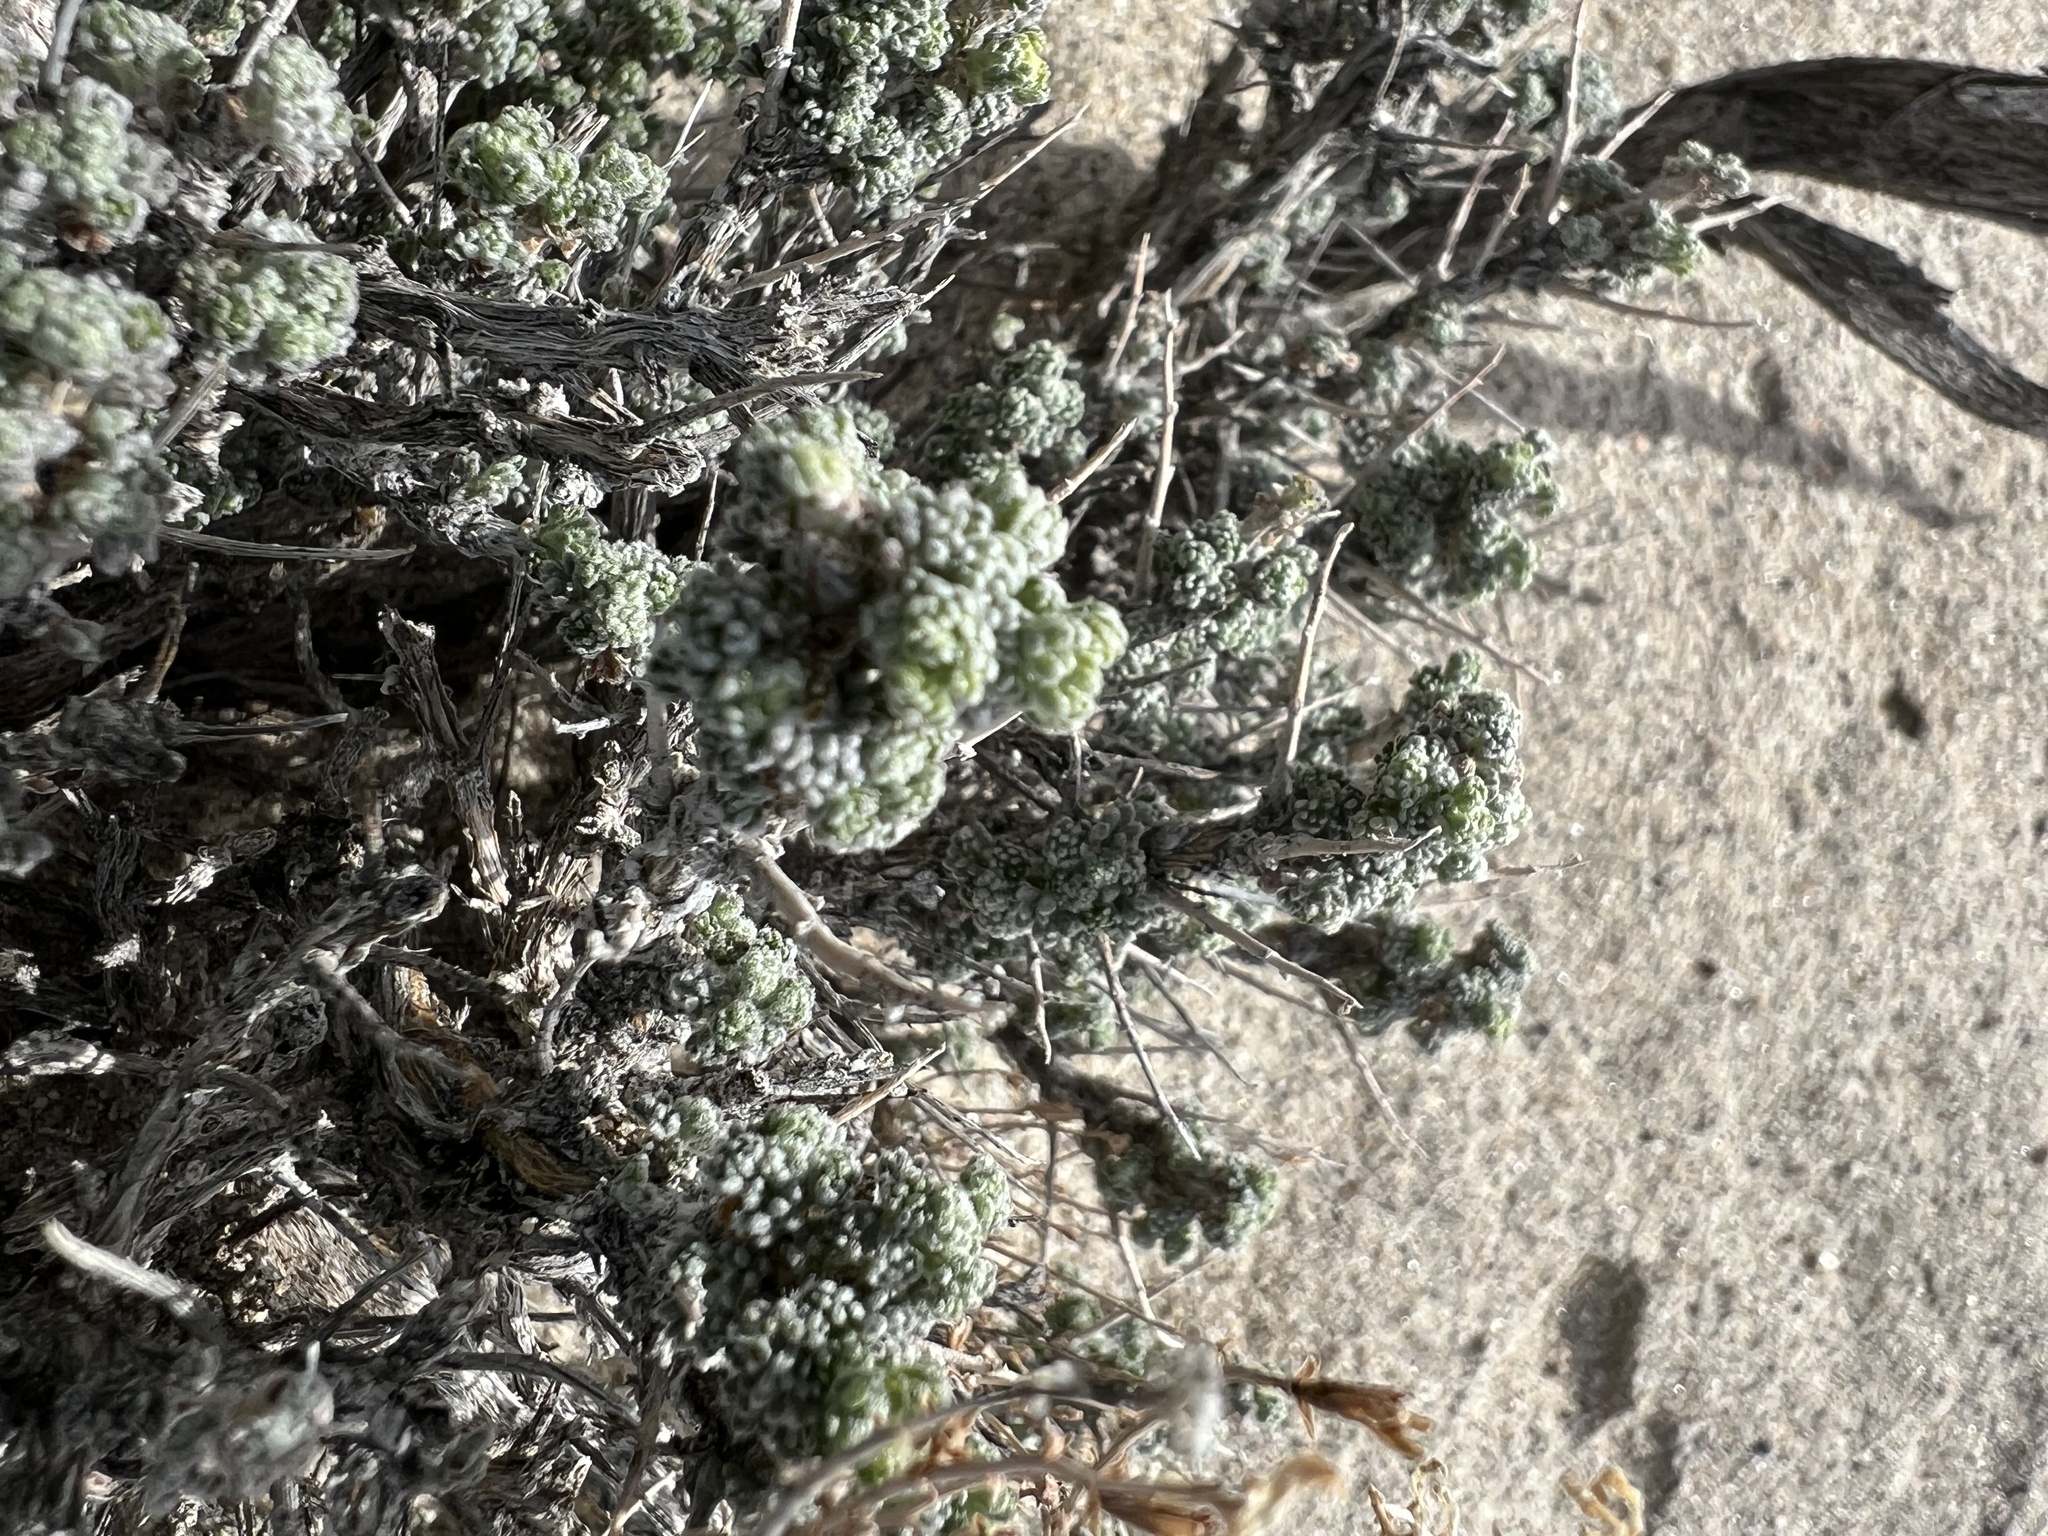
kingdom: Plantae
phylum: Tracheophyta
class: Magnoliopsida
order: Asterales
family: Asteraceae
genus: Artemisia
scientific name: Artemisia spinescens
